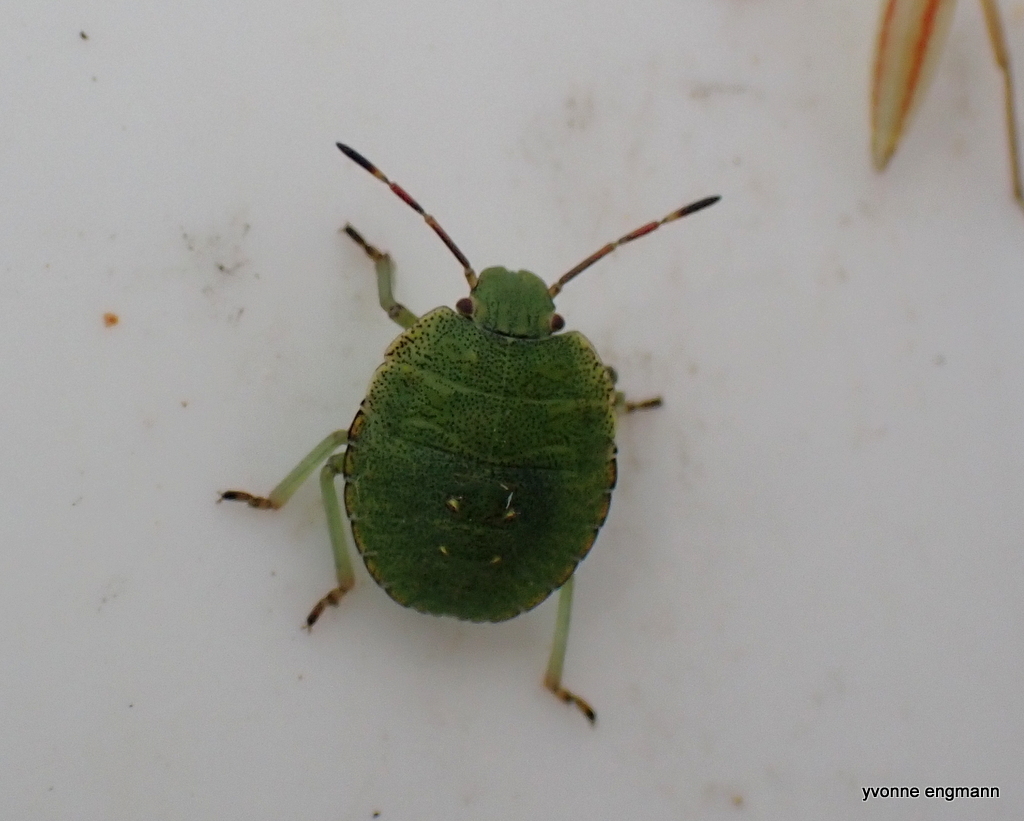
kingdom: Animalia
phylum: Arthropoda
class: Insecta
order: Hemiptera
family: Pentatomidae
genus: Palomena
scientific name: Palomena prasina
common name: Green shieldbug
